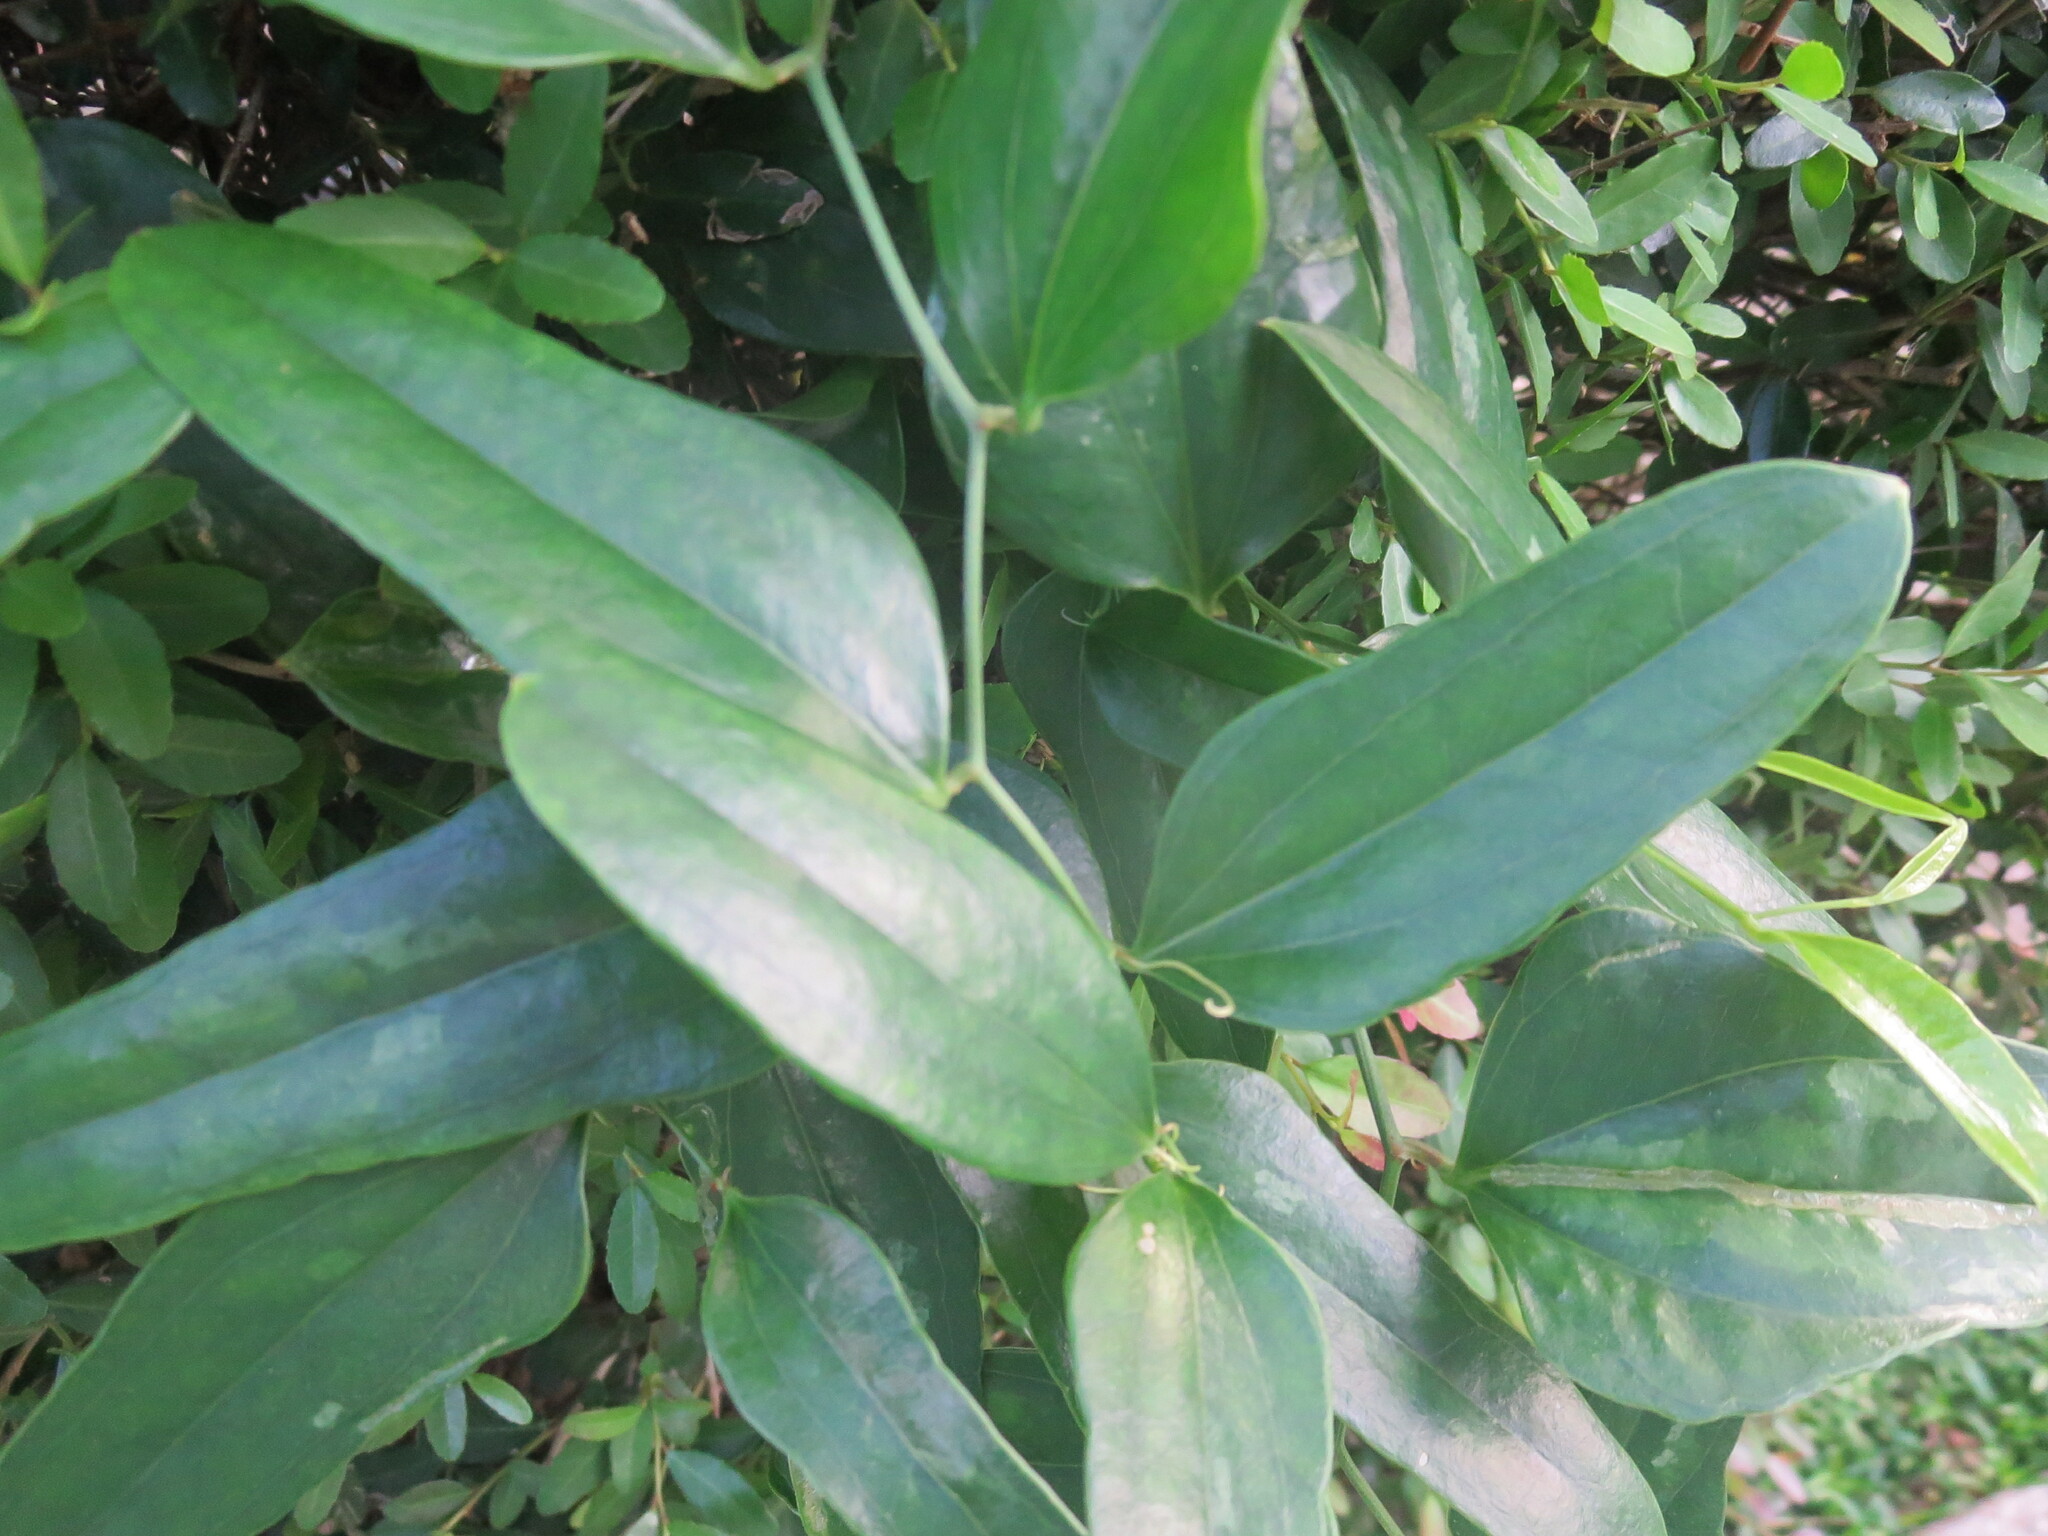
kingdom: Plantae
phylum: Tracheophyta
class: Liliopsida
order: Liliales
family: Smilacaceae
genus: Smilax
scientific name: Smilax auriculata
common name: Wild bamboo
